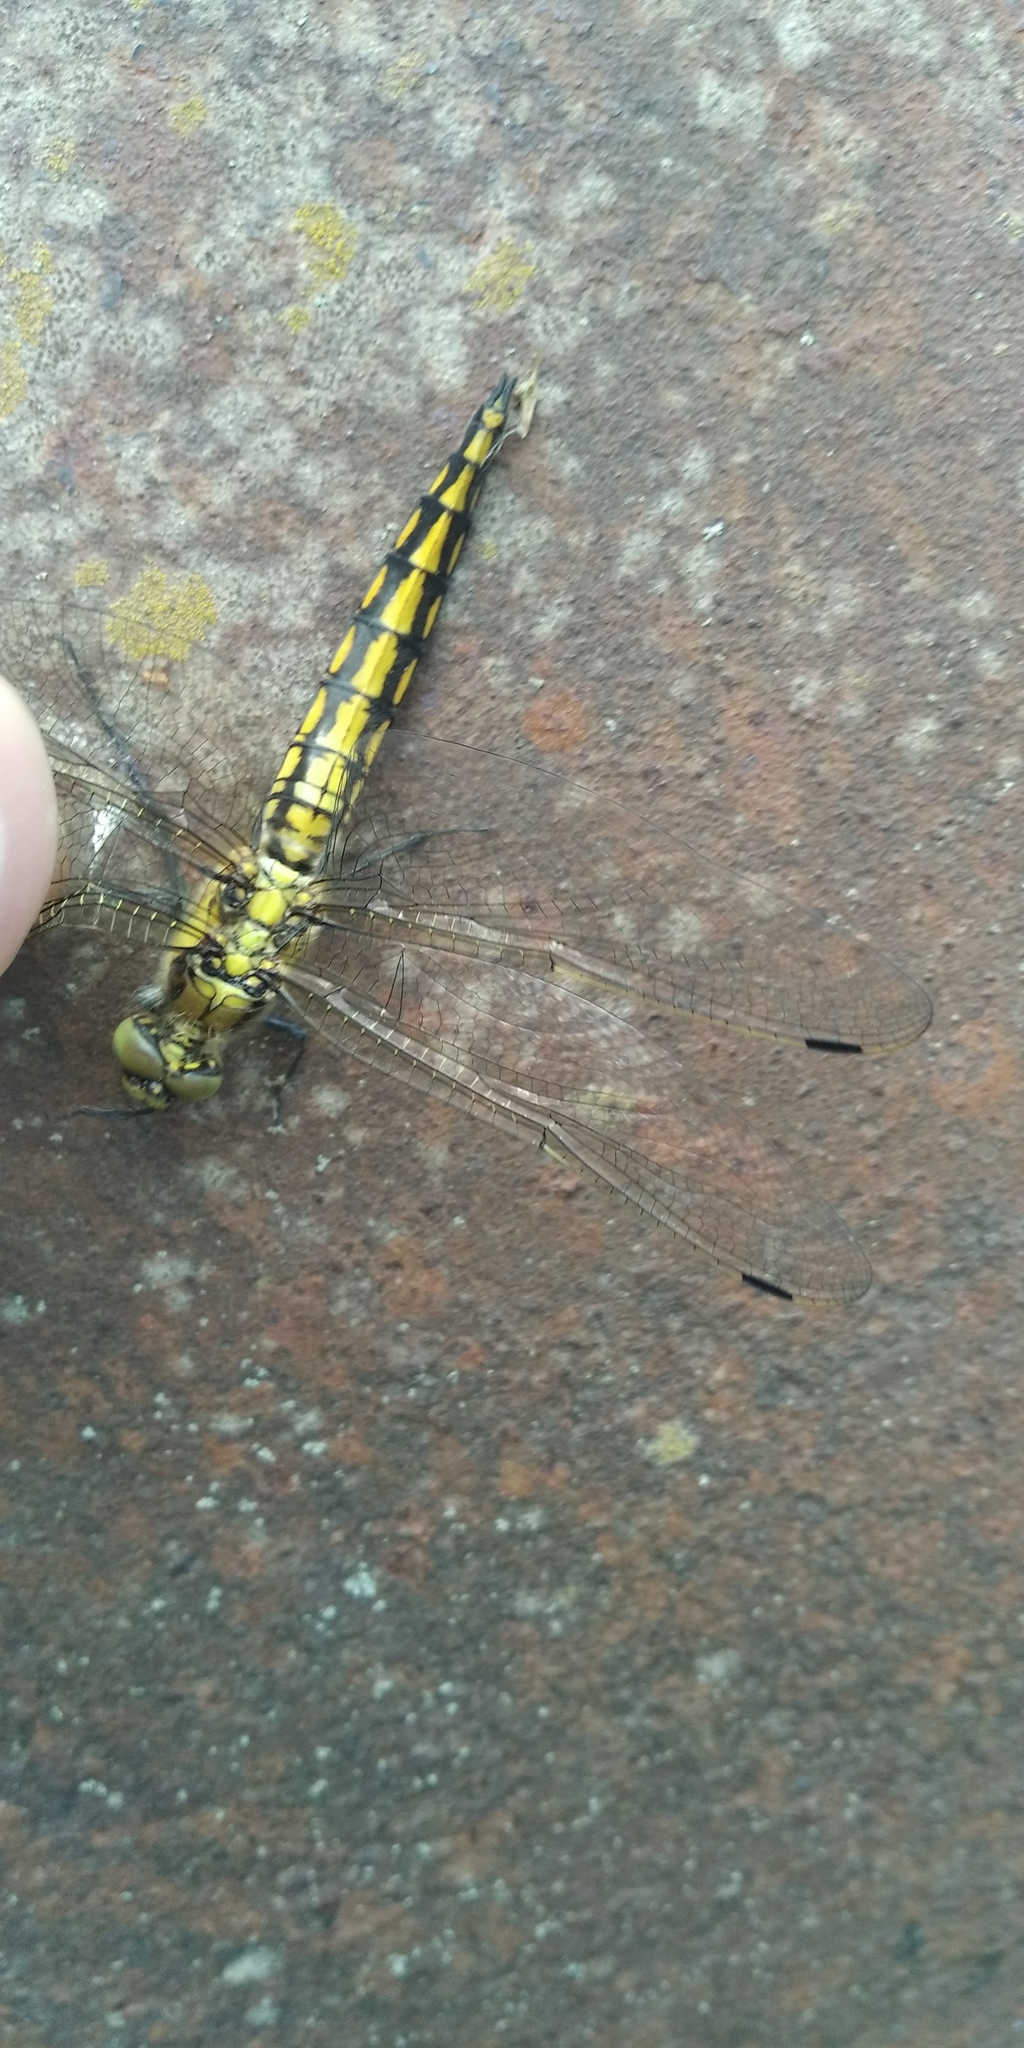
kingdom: Animalia
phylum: Arthropoda
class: Insecta
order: Odonata
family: Libellulidae
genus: Orthetrum
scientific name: Orthetrum cancellatum
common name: Black-tailed skimmer
